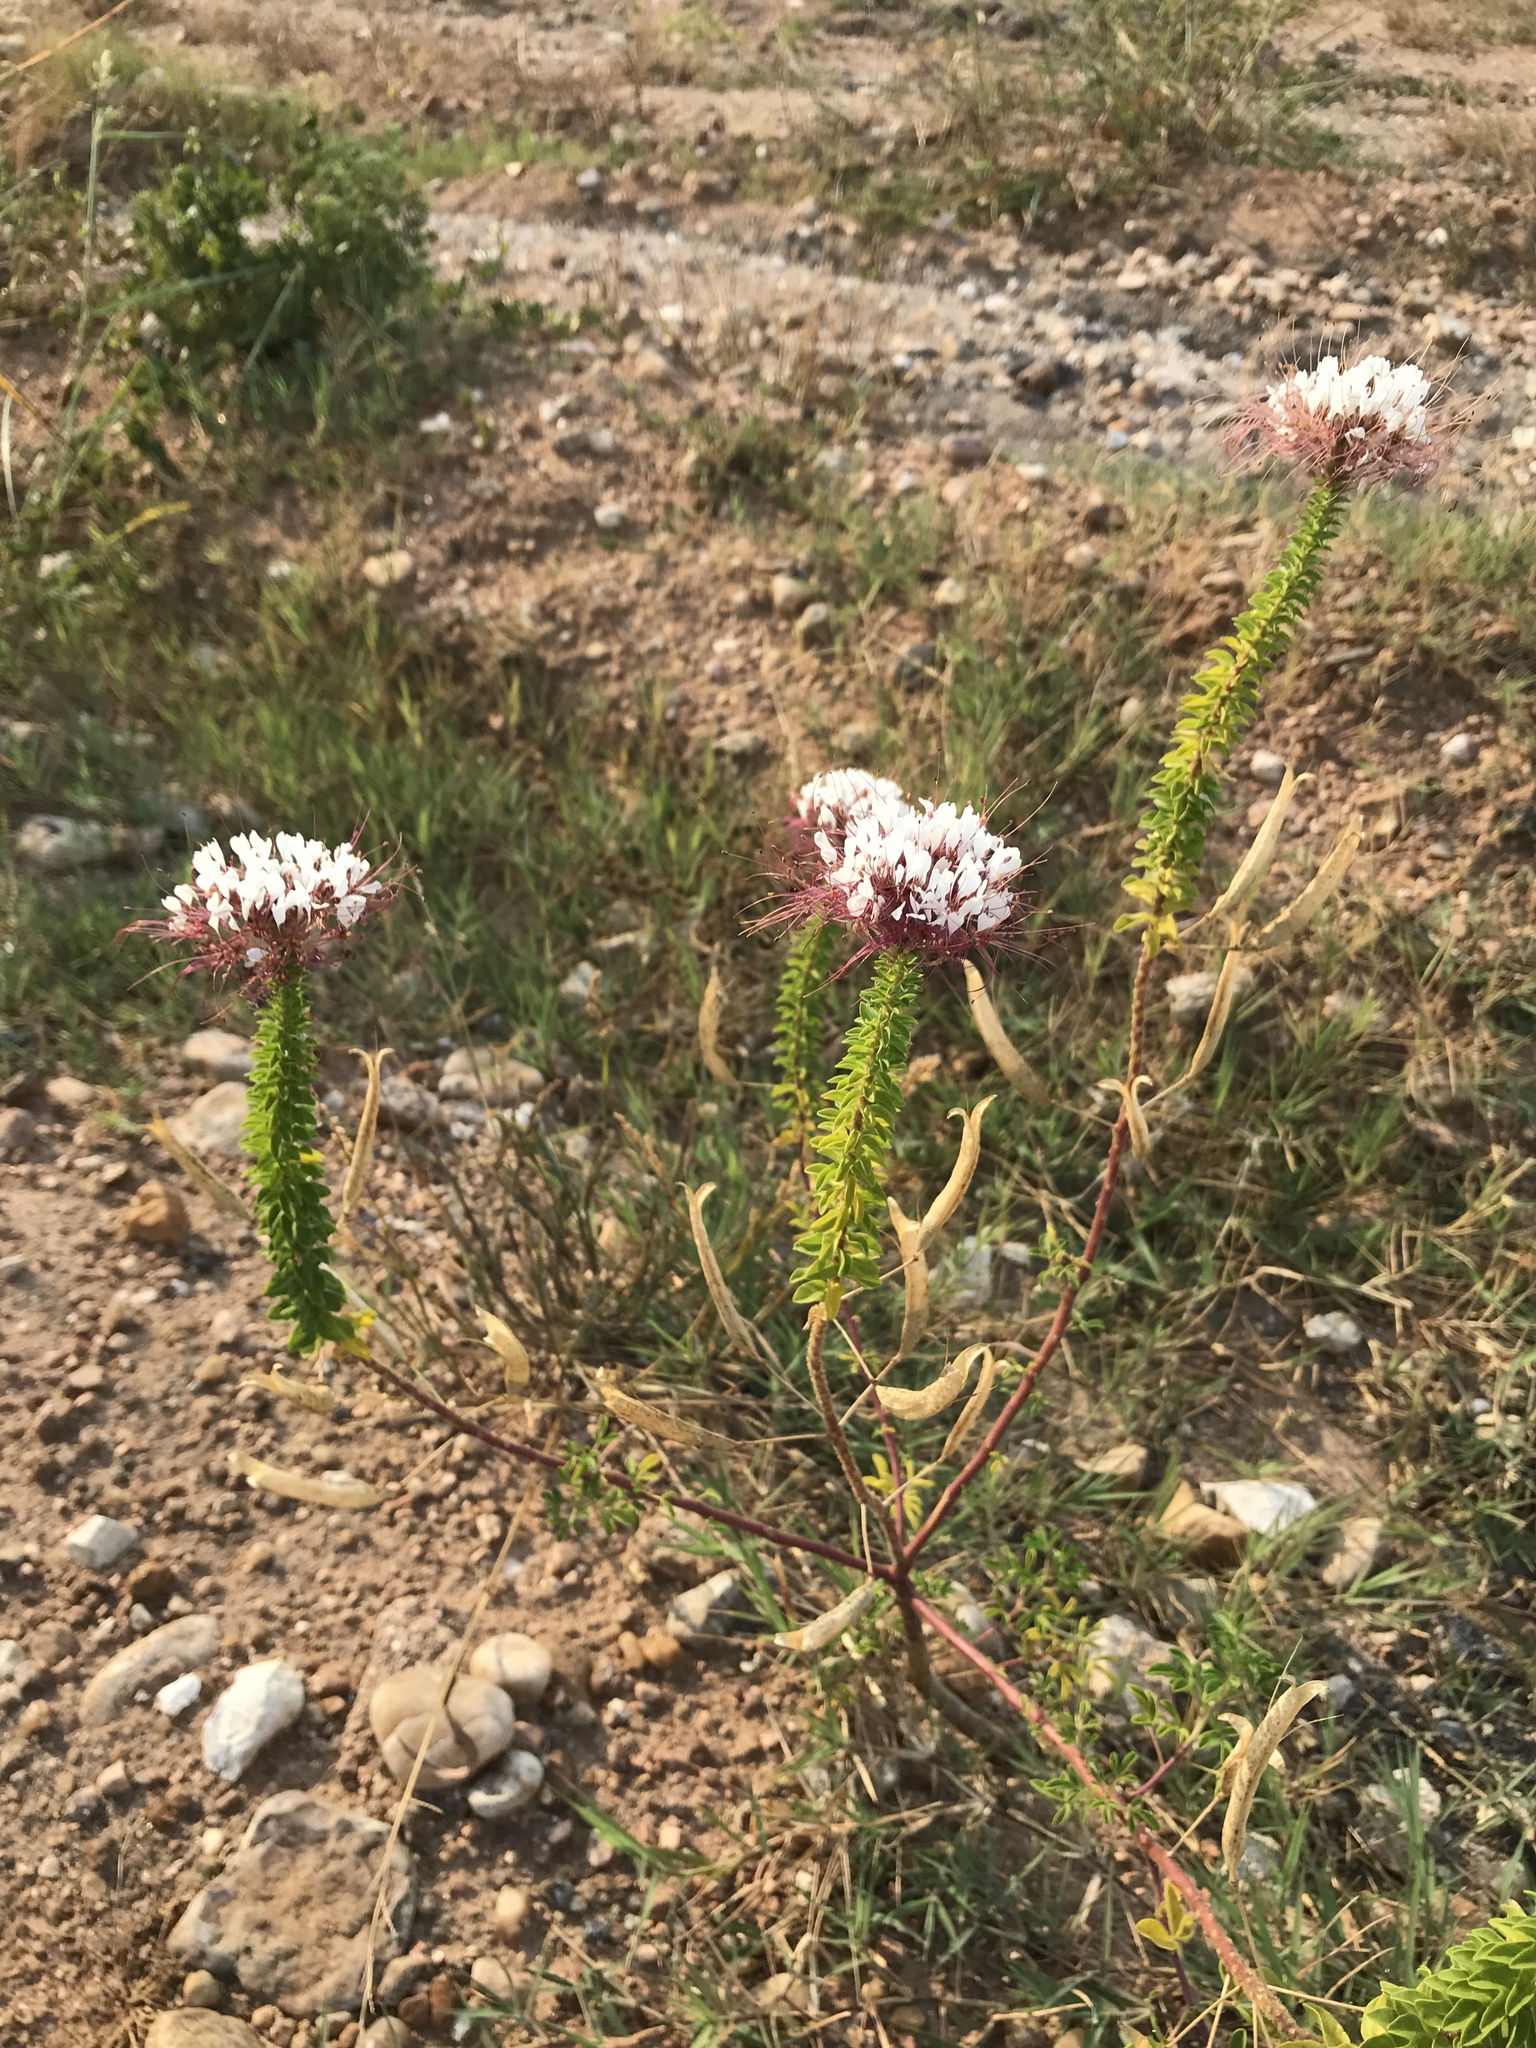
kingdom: Plantae
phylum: Tracheophyta
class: Magnoliopsida
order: Brassicales
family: Cleomaceae
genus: Polanisia
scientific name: Polanisia dodecandra
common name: Clammyweed
